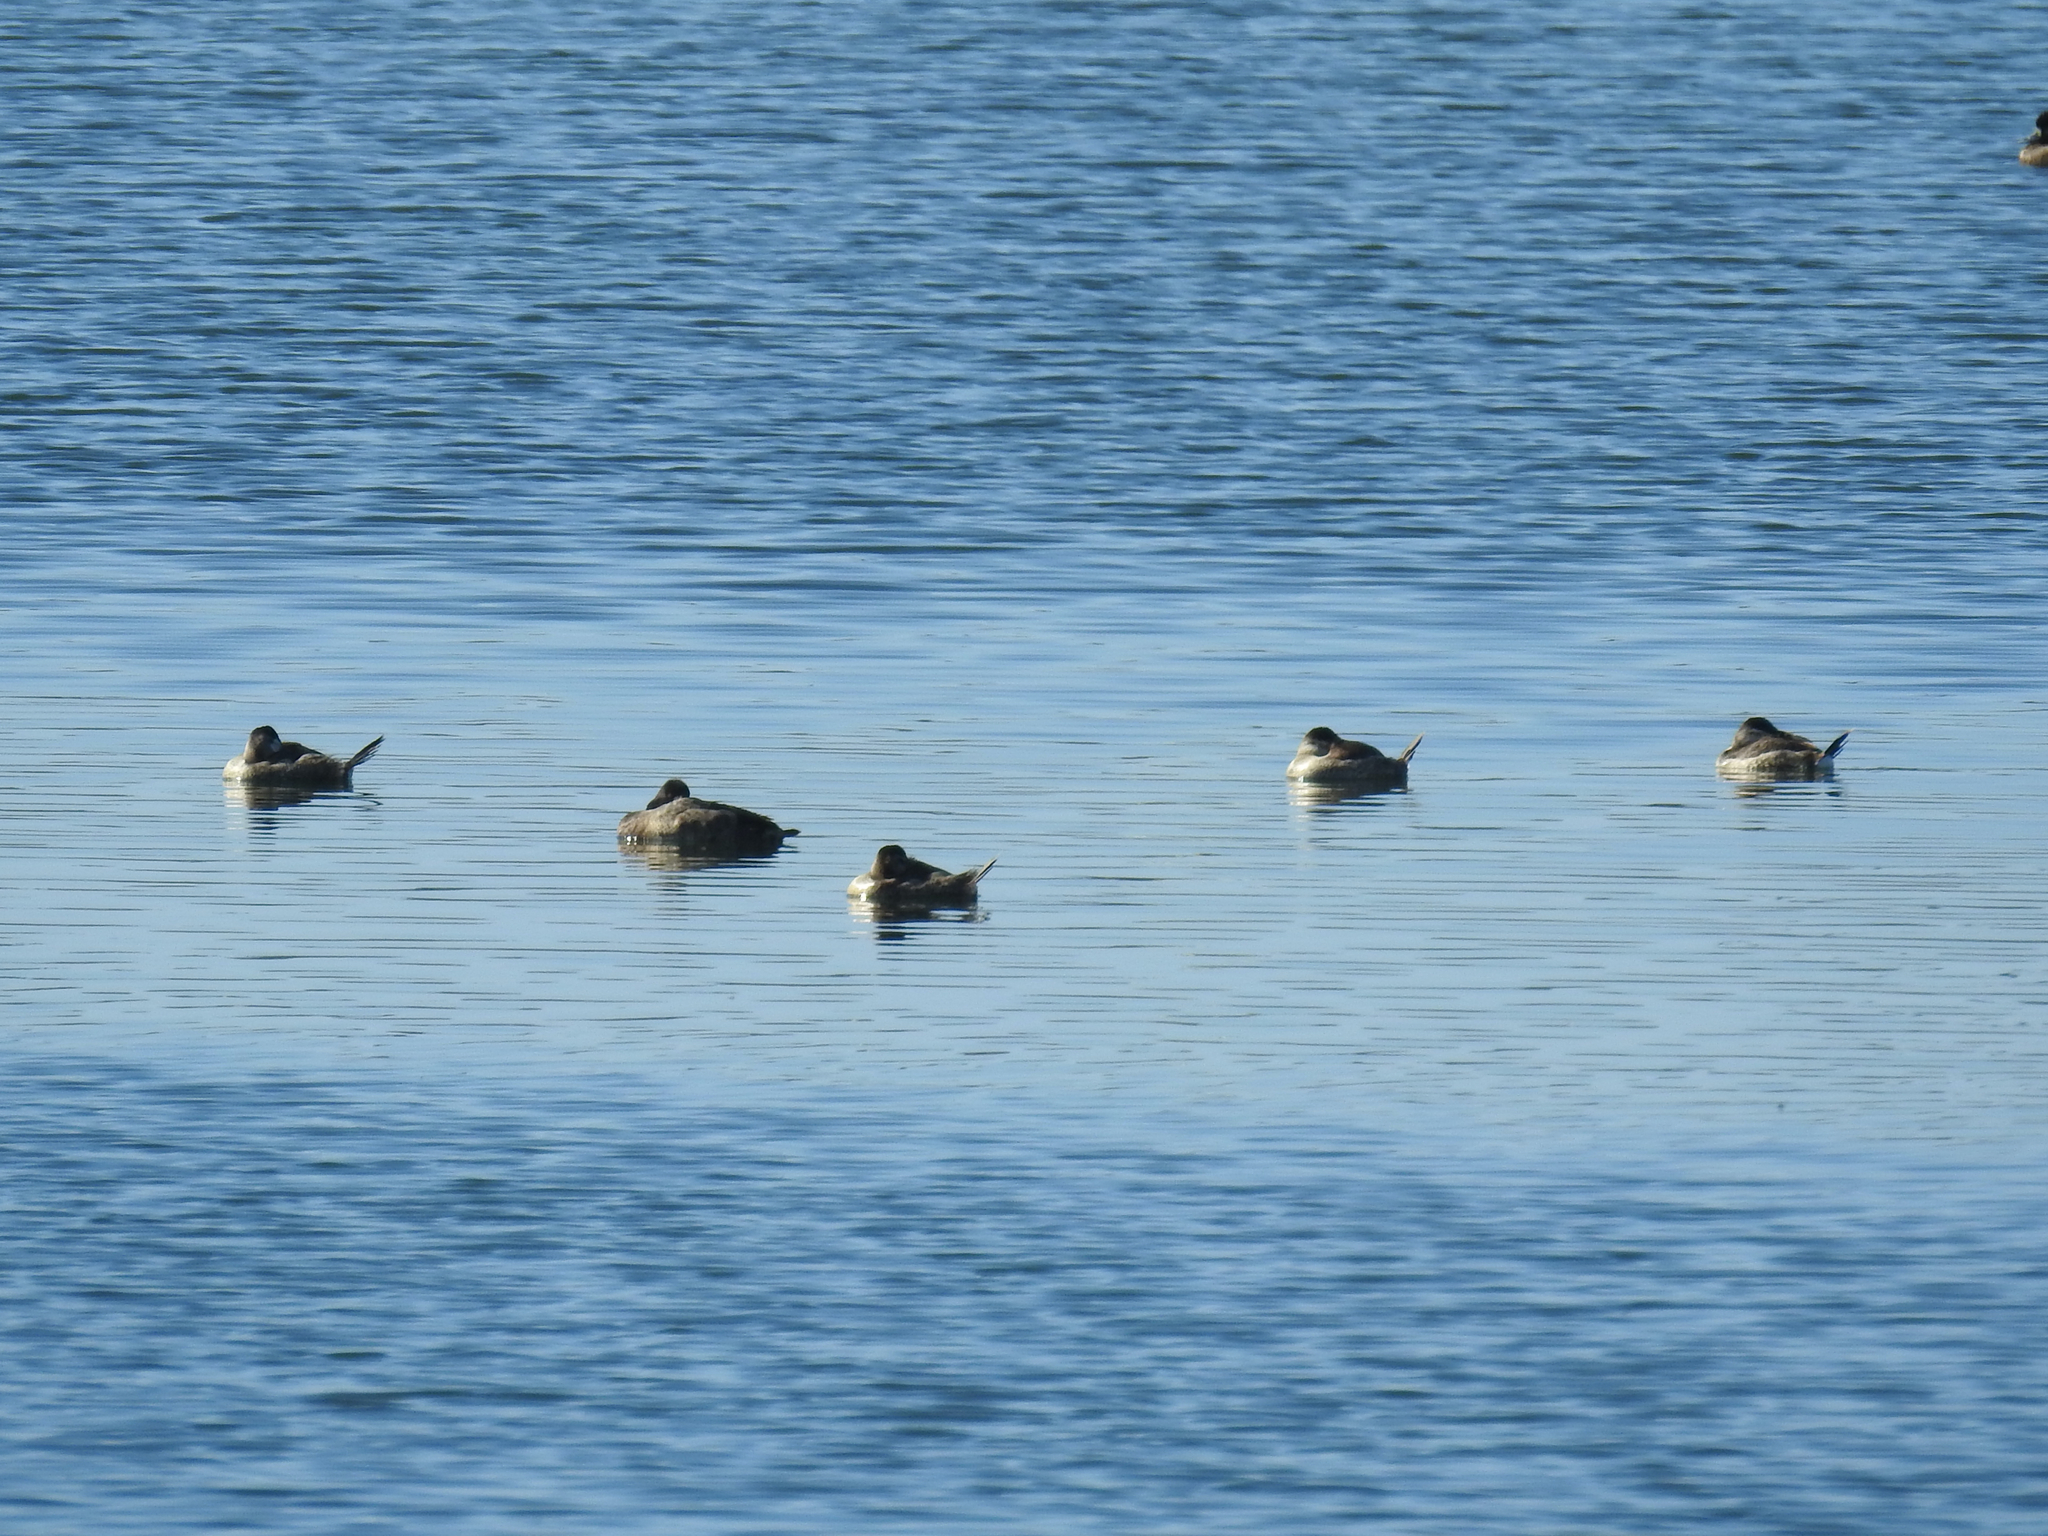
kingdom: Animalia
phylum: Chordata
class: Aves
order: Anseriformes
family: Anatidae
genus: Oxyura
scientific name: Oxyura jamaicensis
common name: Ruddy duck
